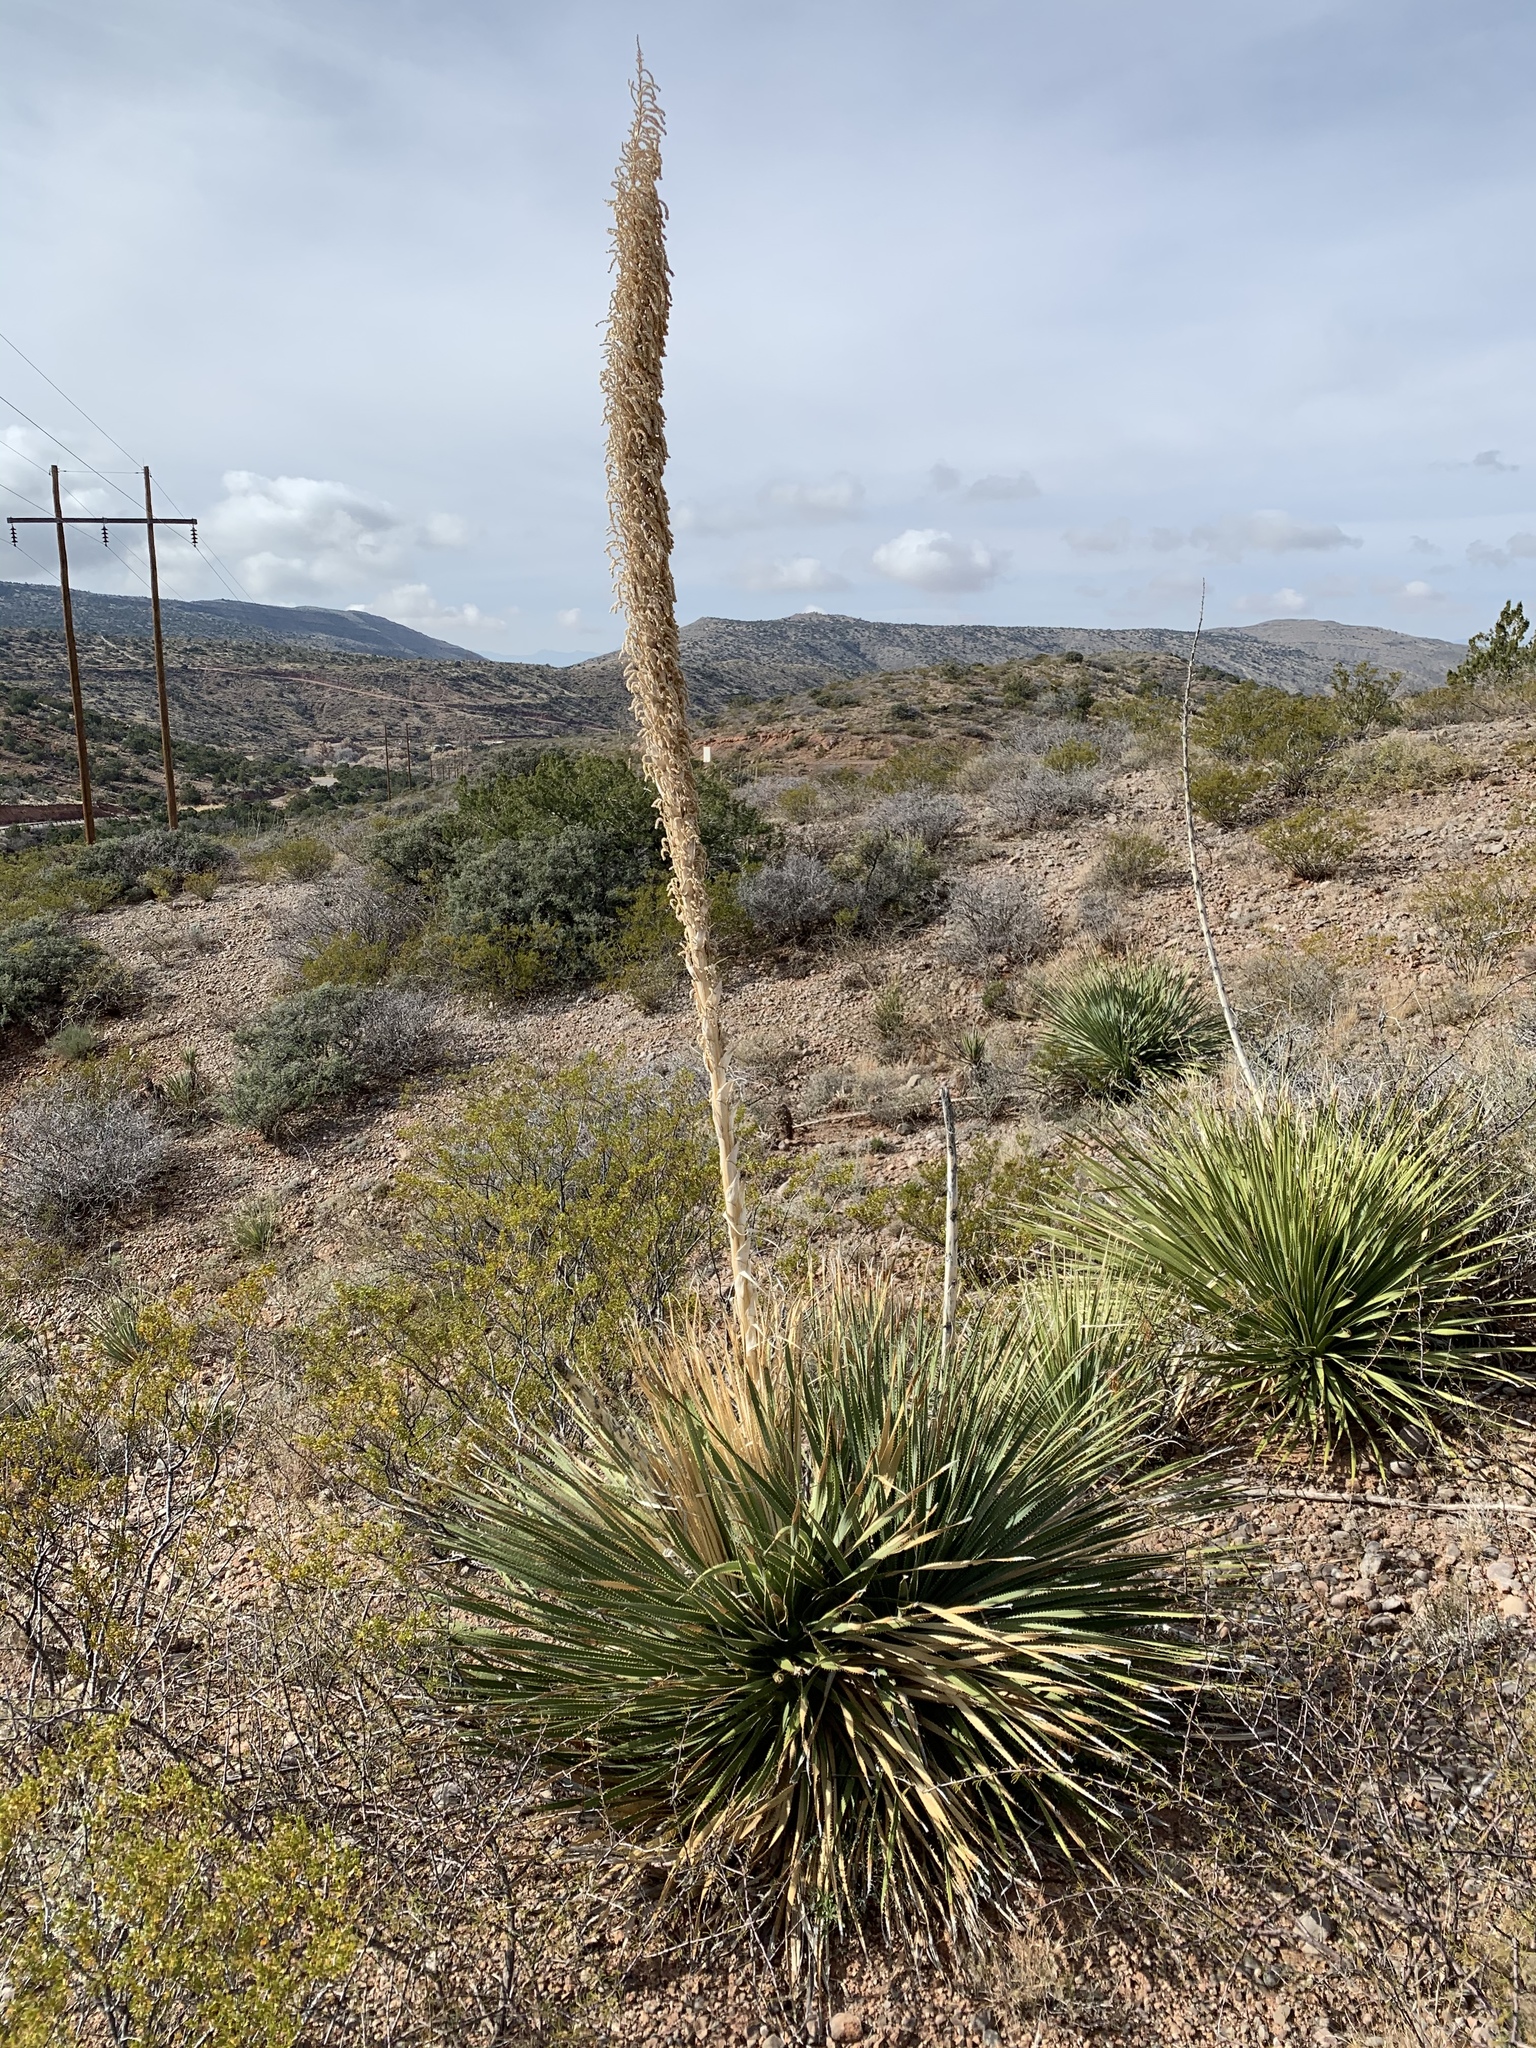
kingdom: Plantae
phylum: Tracheophyta
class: Liliopsida
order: Asparagales
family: Asparagaceae
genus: Dasylirion
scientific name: Dasylirion wheeleri
